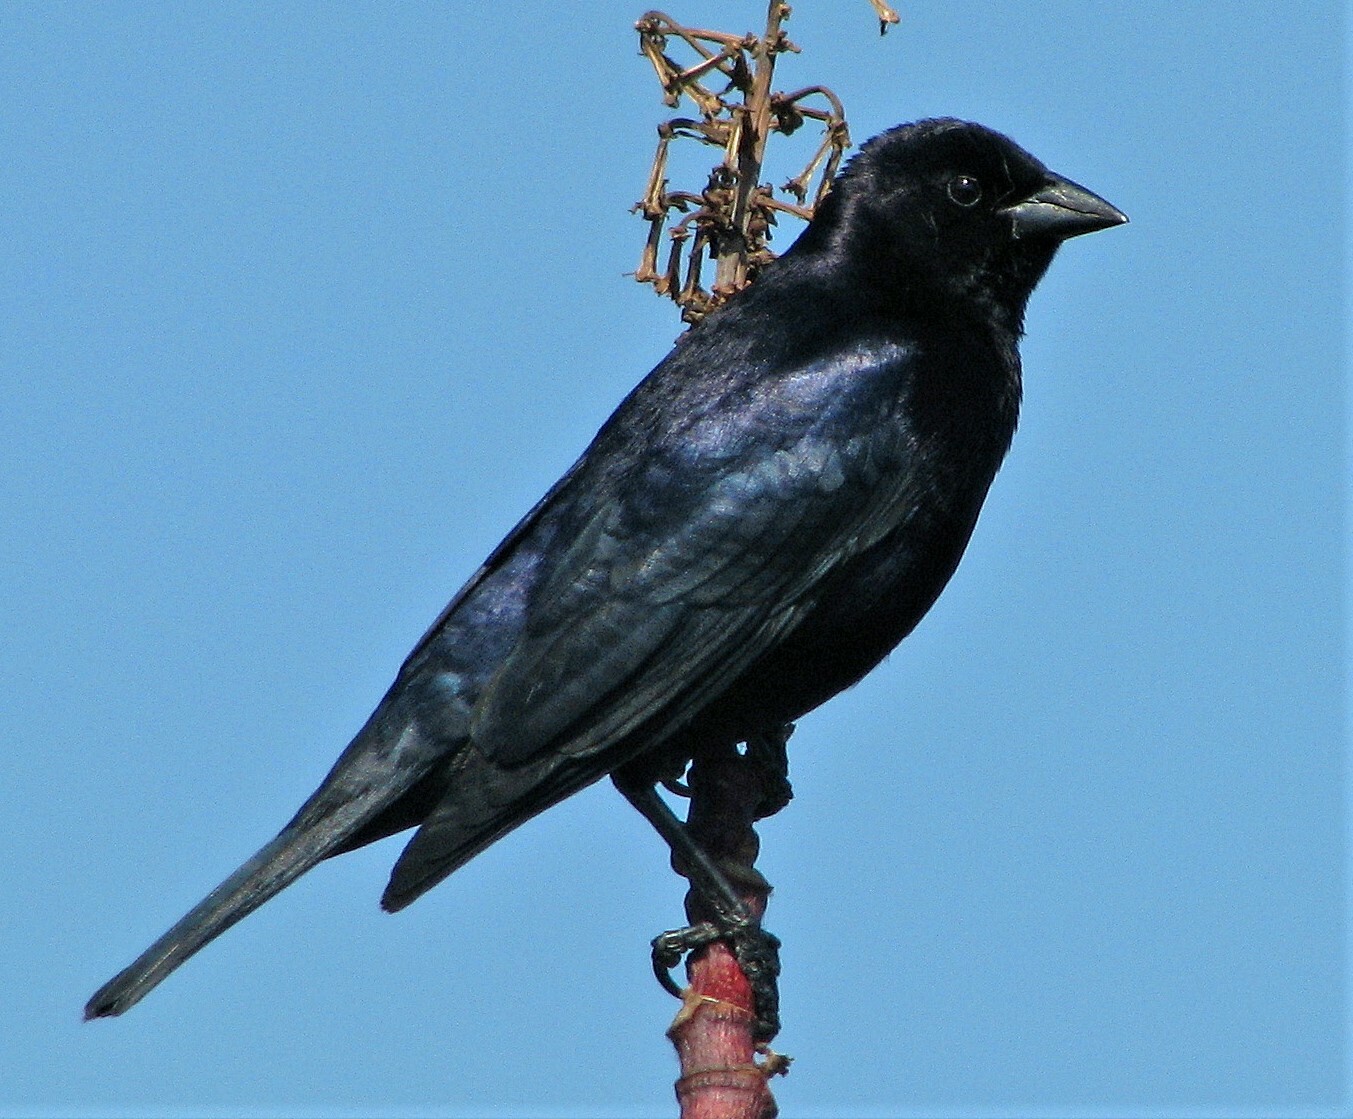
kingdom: Animalia
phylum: Chordata
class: Aves
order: Passeriformes
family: Icteridae
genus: Molothrus
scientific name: Molothrus bonariensis
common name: Shiny cowbird
